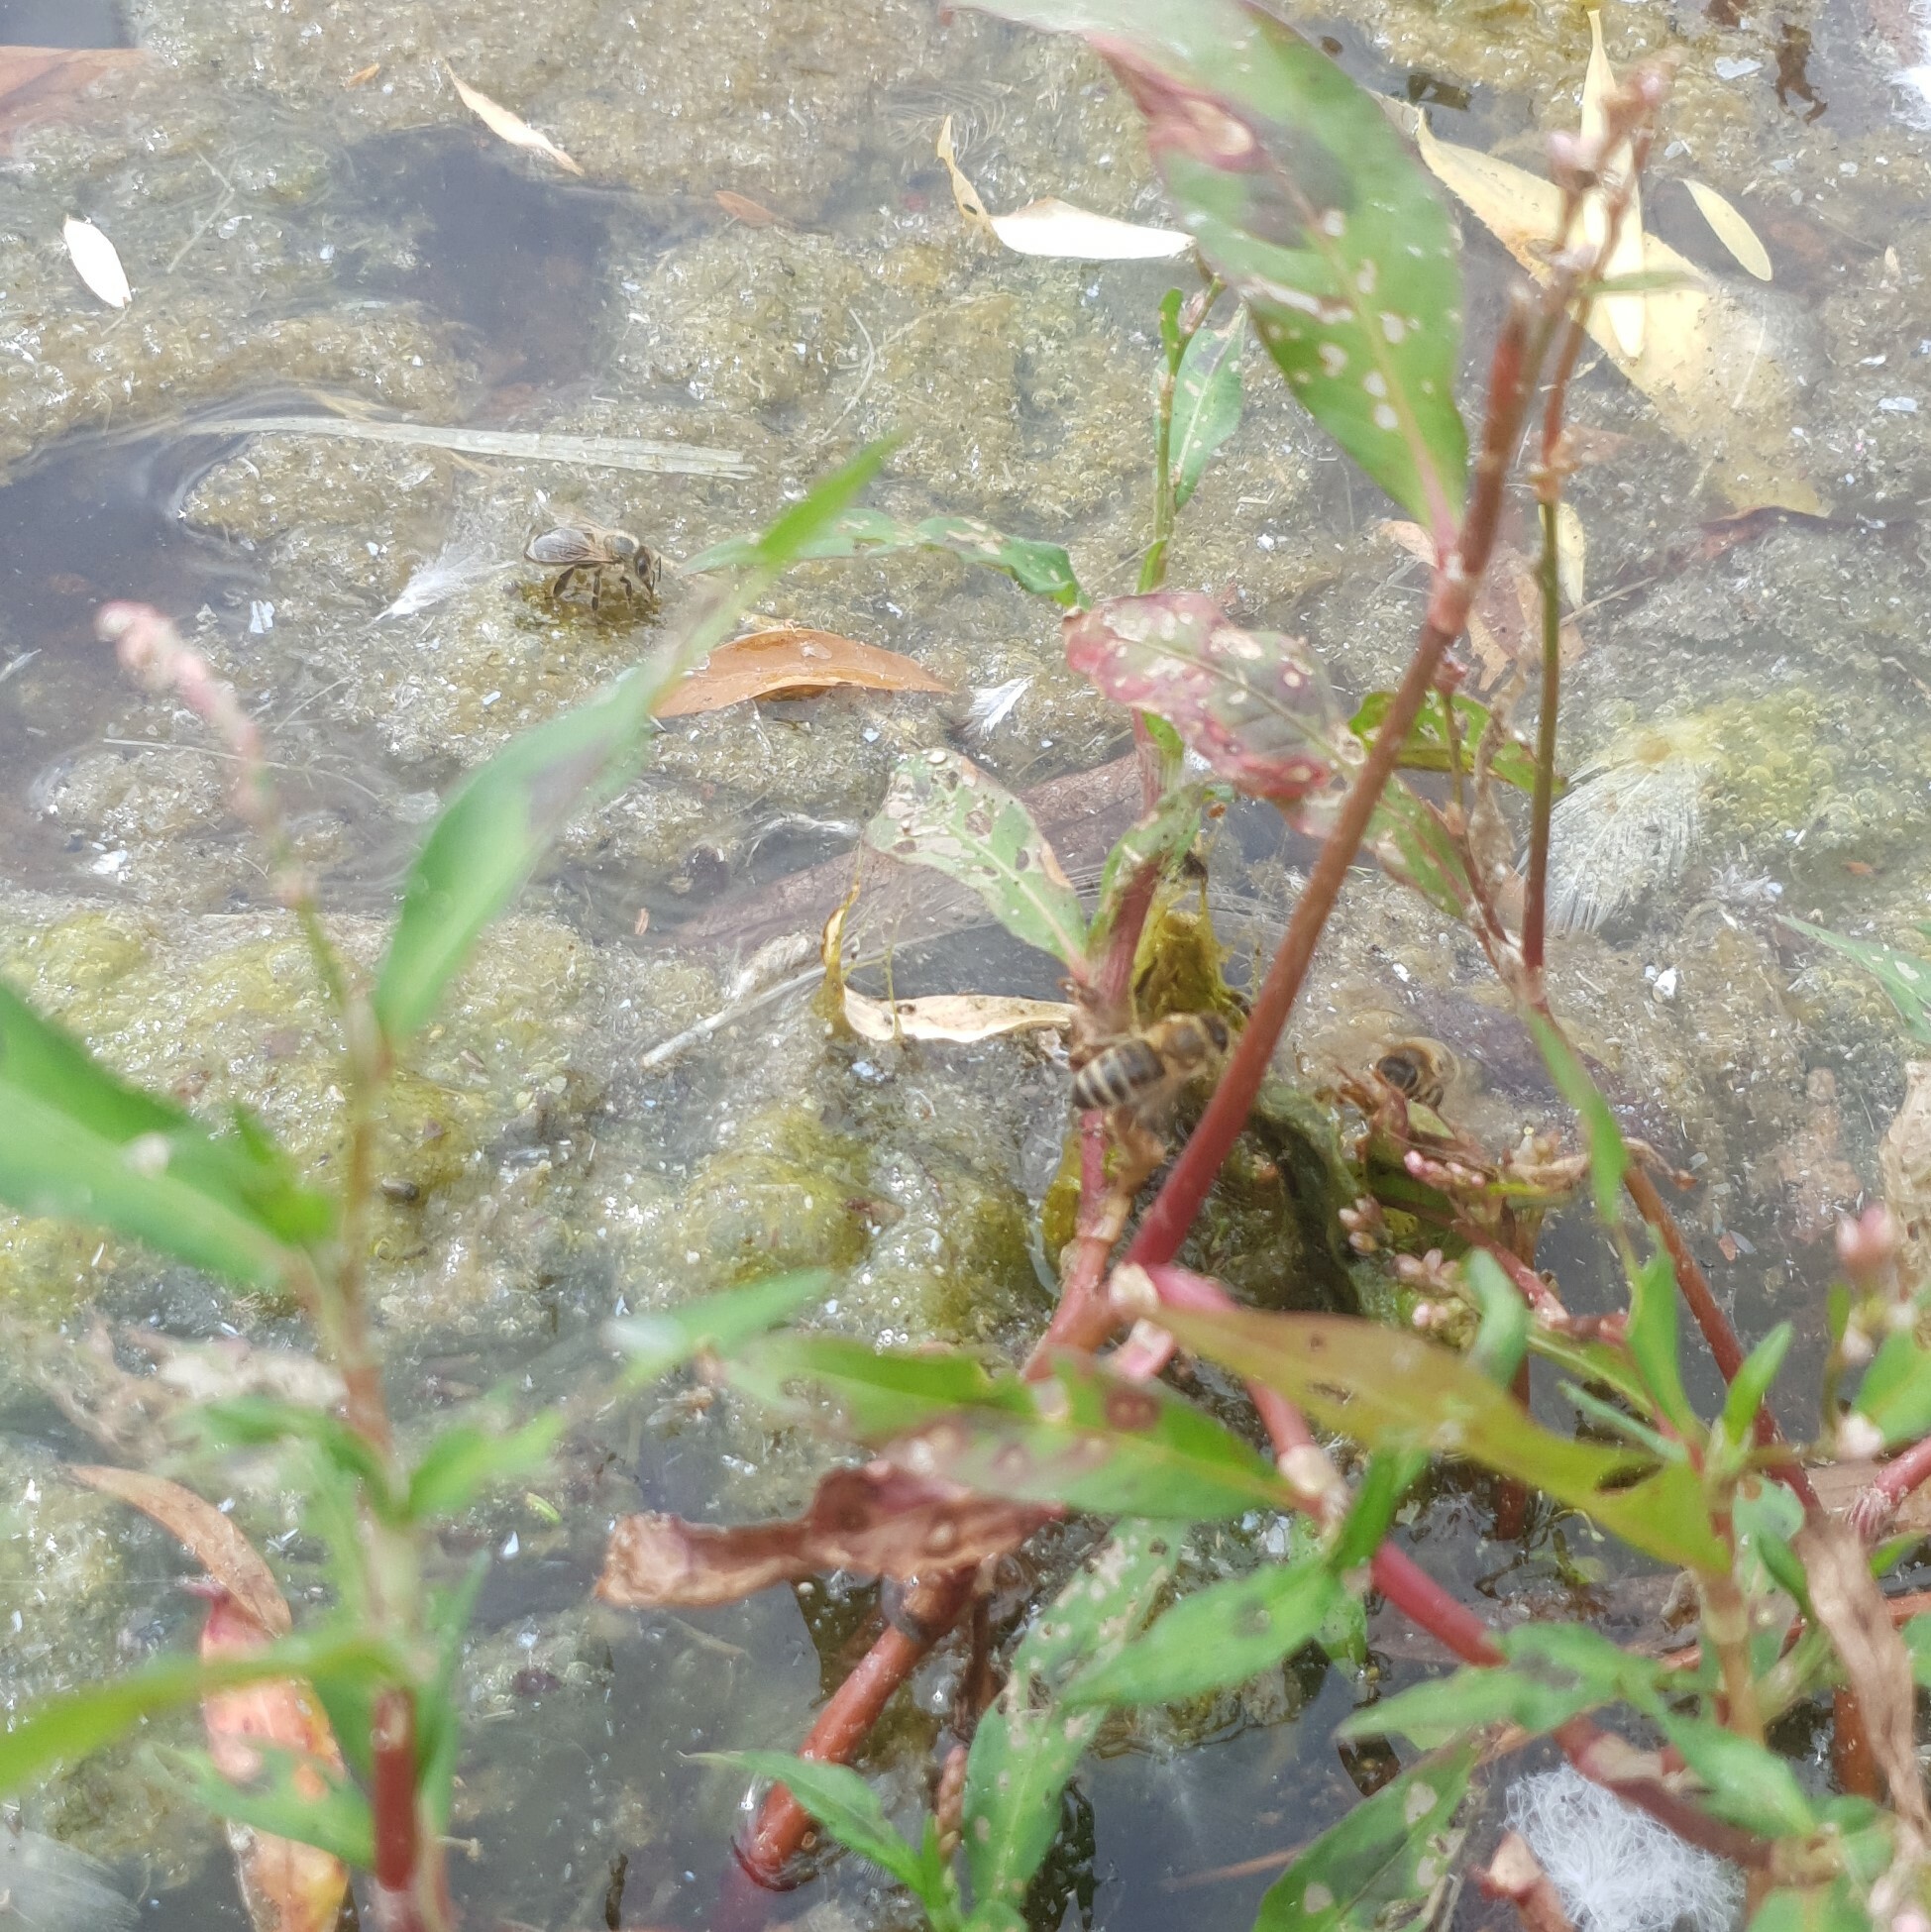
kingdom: Animalia
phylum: Arthropoda
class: Insecta
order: Hymenoptera
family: Apidae
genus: Apis
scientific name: Apis mellifera
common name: Honey bee
